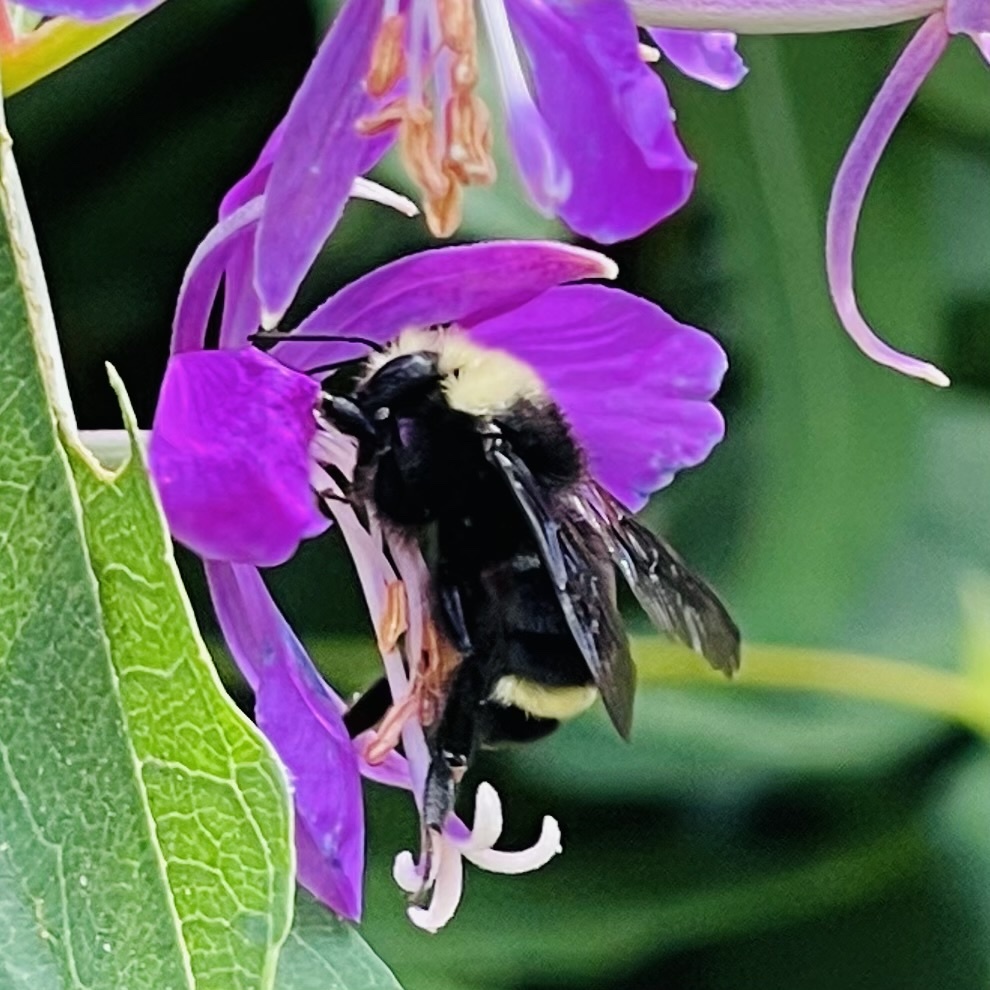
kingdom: Animalia
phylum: Arthropoda
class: Insecta
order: Hymenoptera
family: Apidae
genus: Bombus
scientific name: Bombus vosnesenskii
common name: Vosnesensky bumble bee
